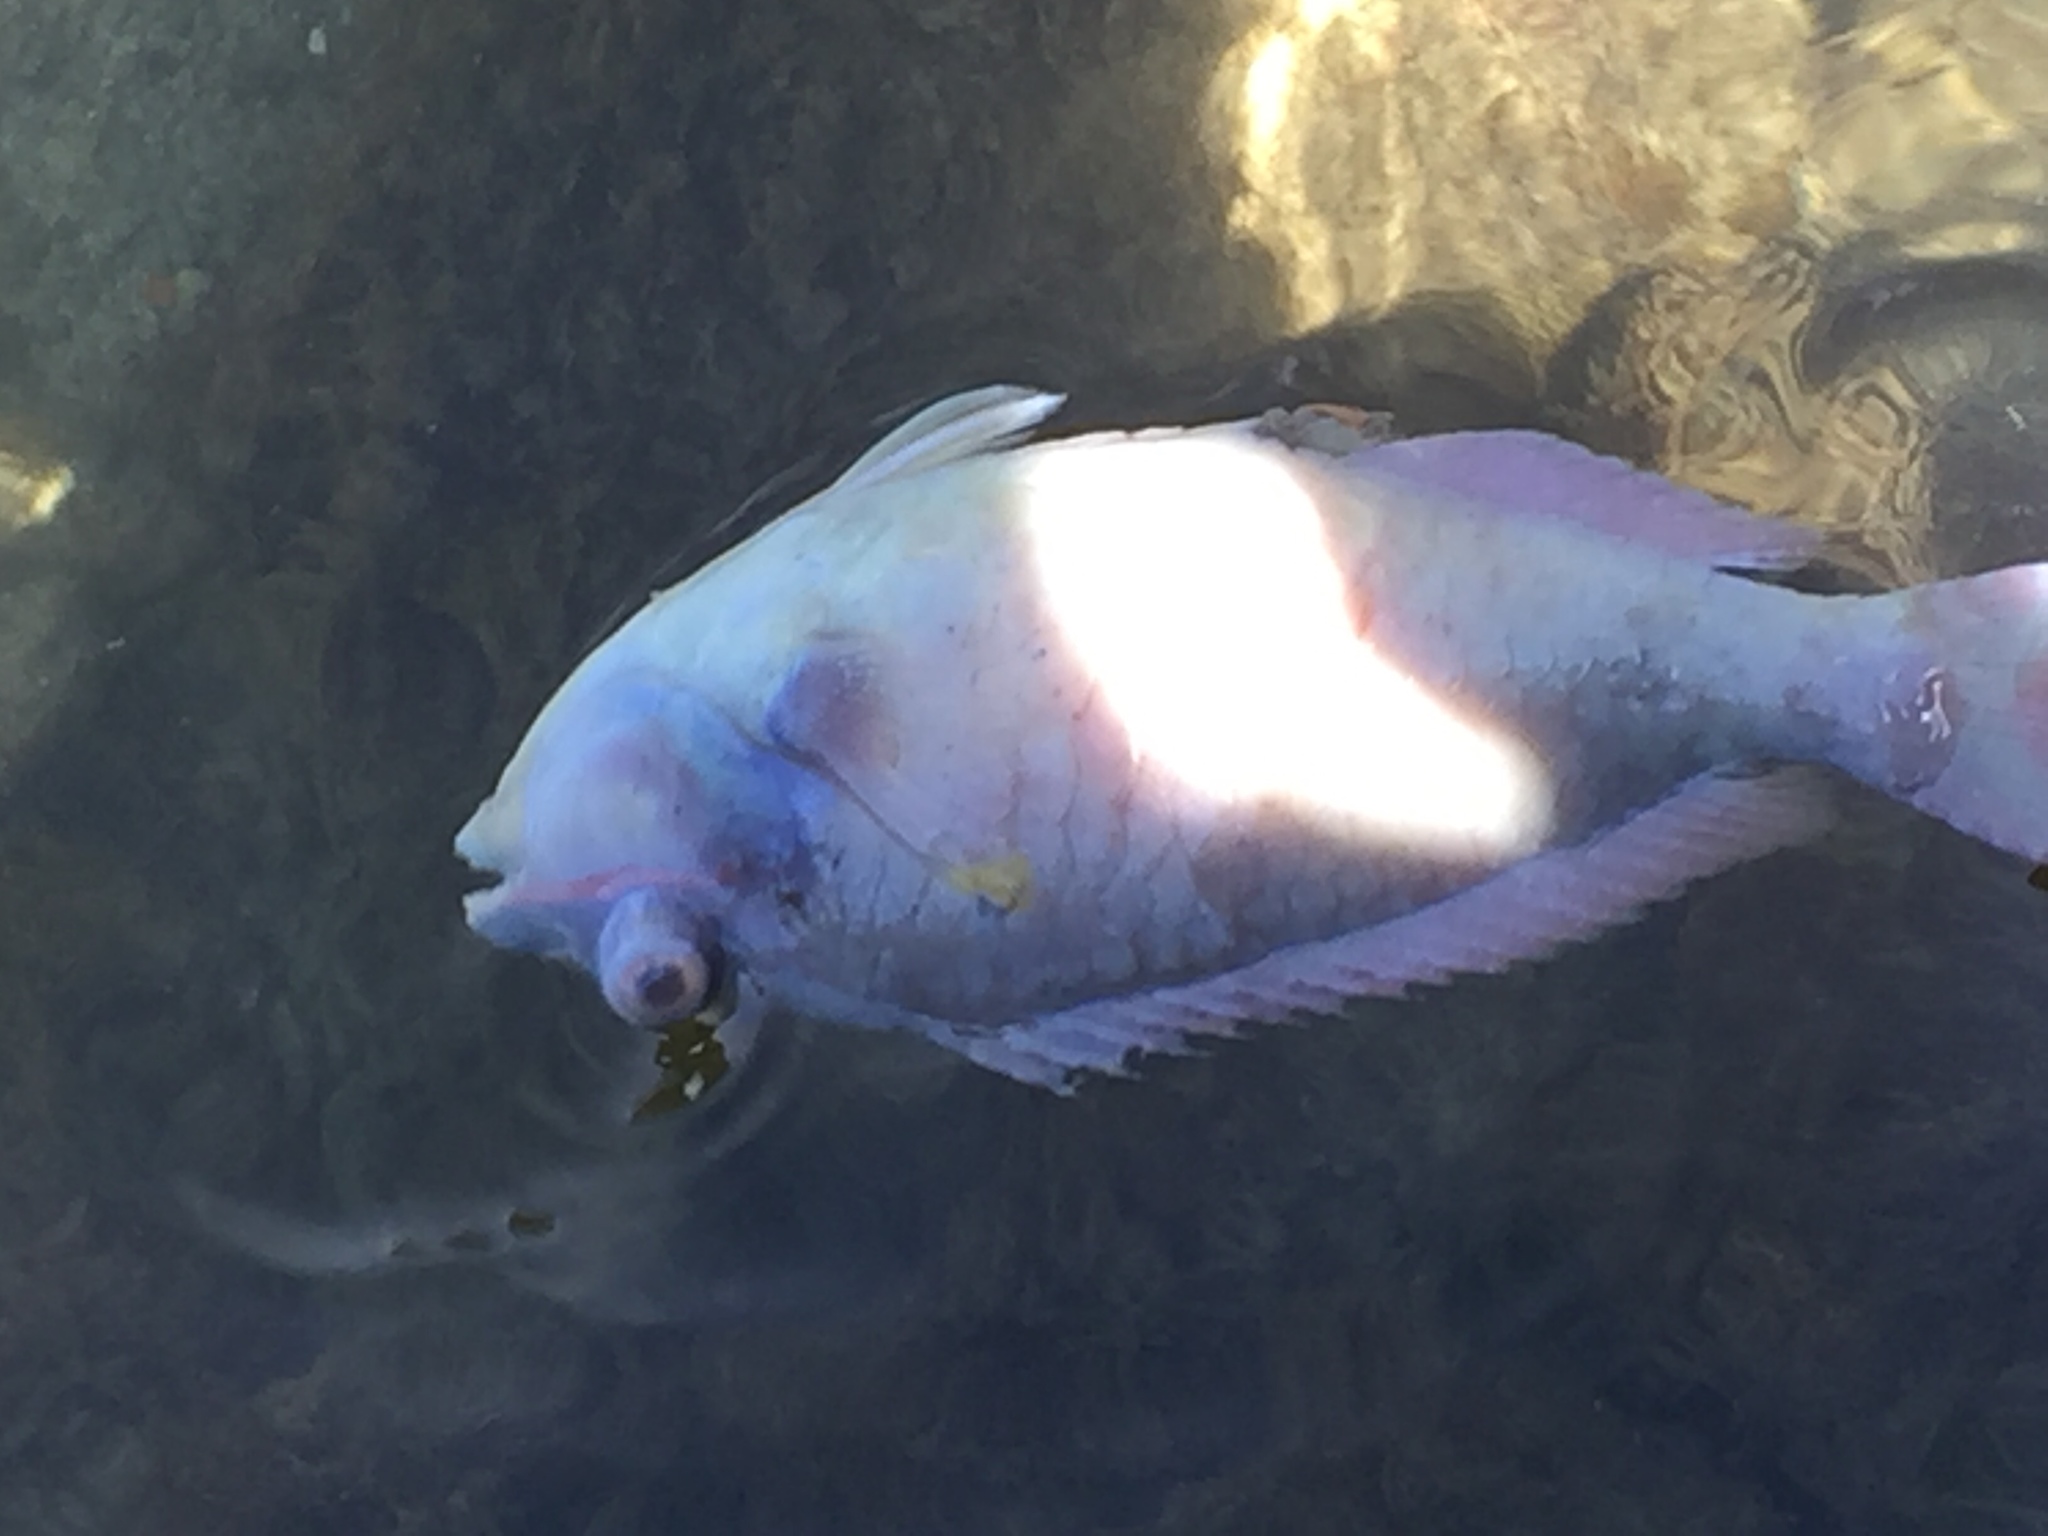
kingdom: Animalia
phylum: Chordata
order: Perciformes
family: Scaridae
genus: Sparisoma
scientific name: Sparisoma aurofrenatum
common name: Redband parrotfish
